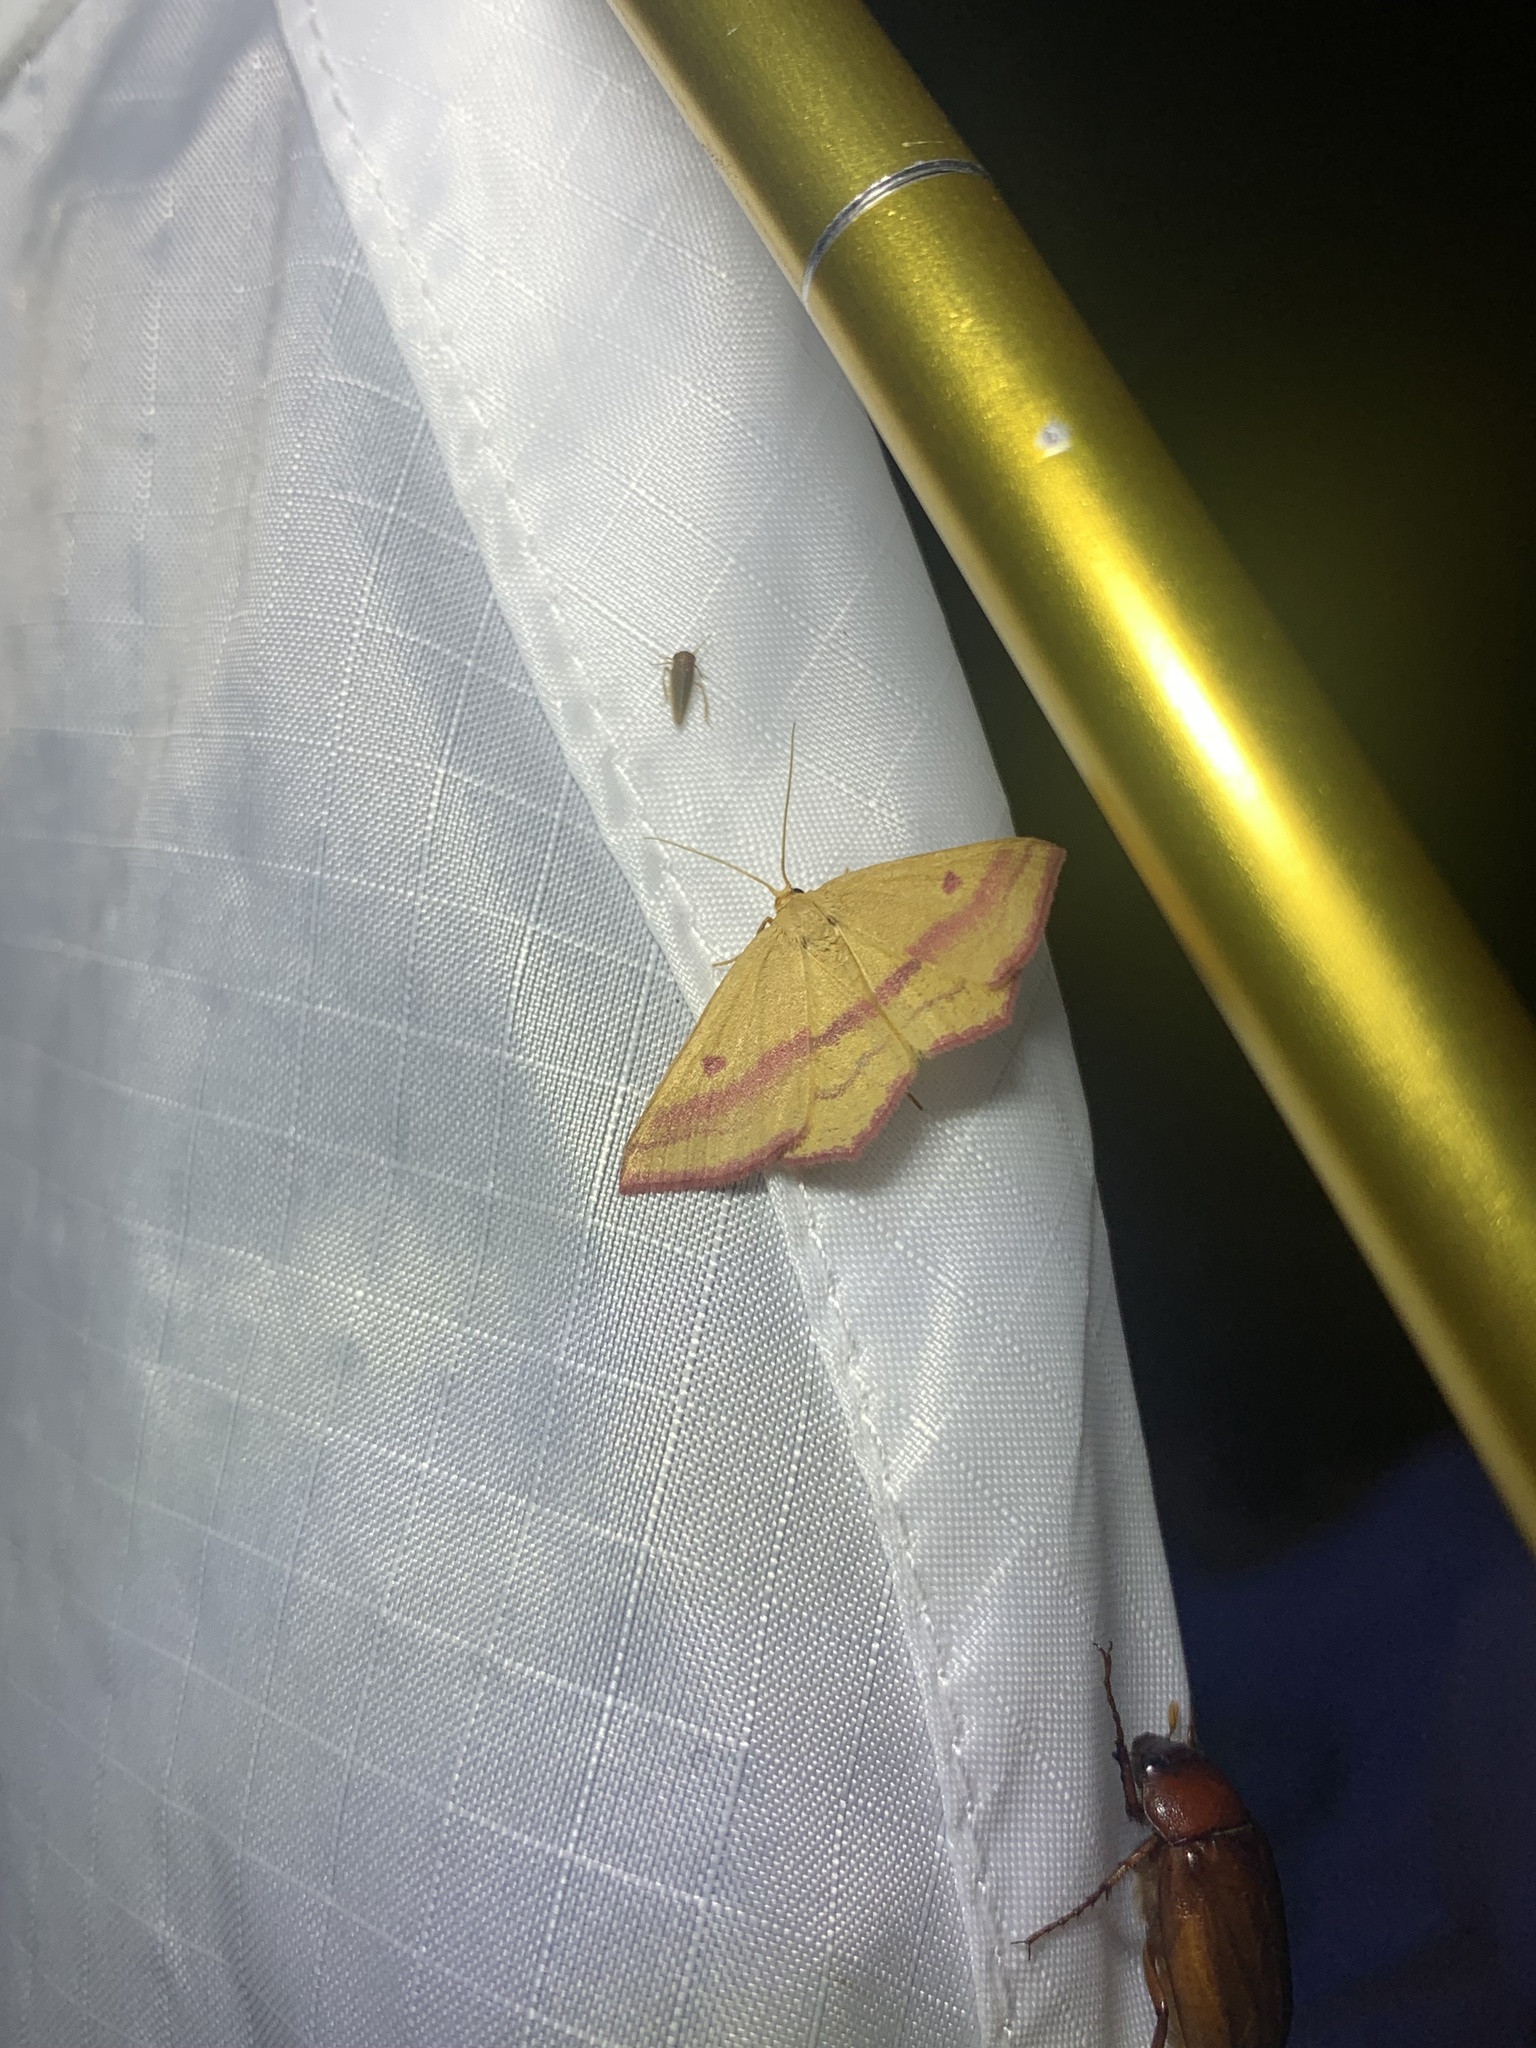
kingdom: Animalia
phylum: Arthropoda
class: Insecta
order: Lepidoptera
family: Geometridae
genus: Haematopis
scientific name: Haematopis grataria
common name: Chickweed geometer
